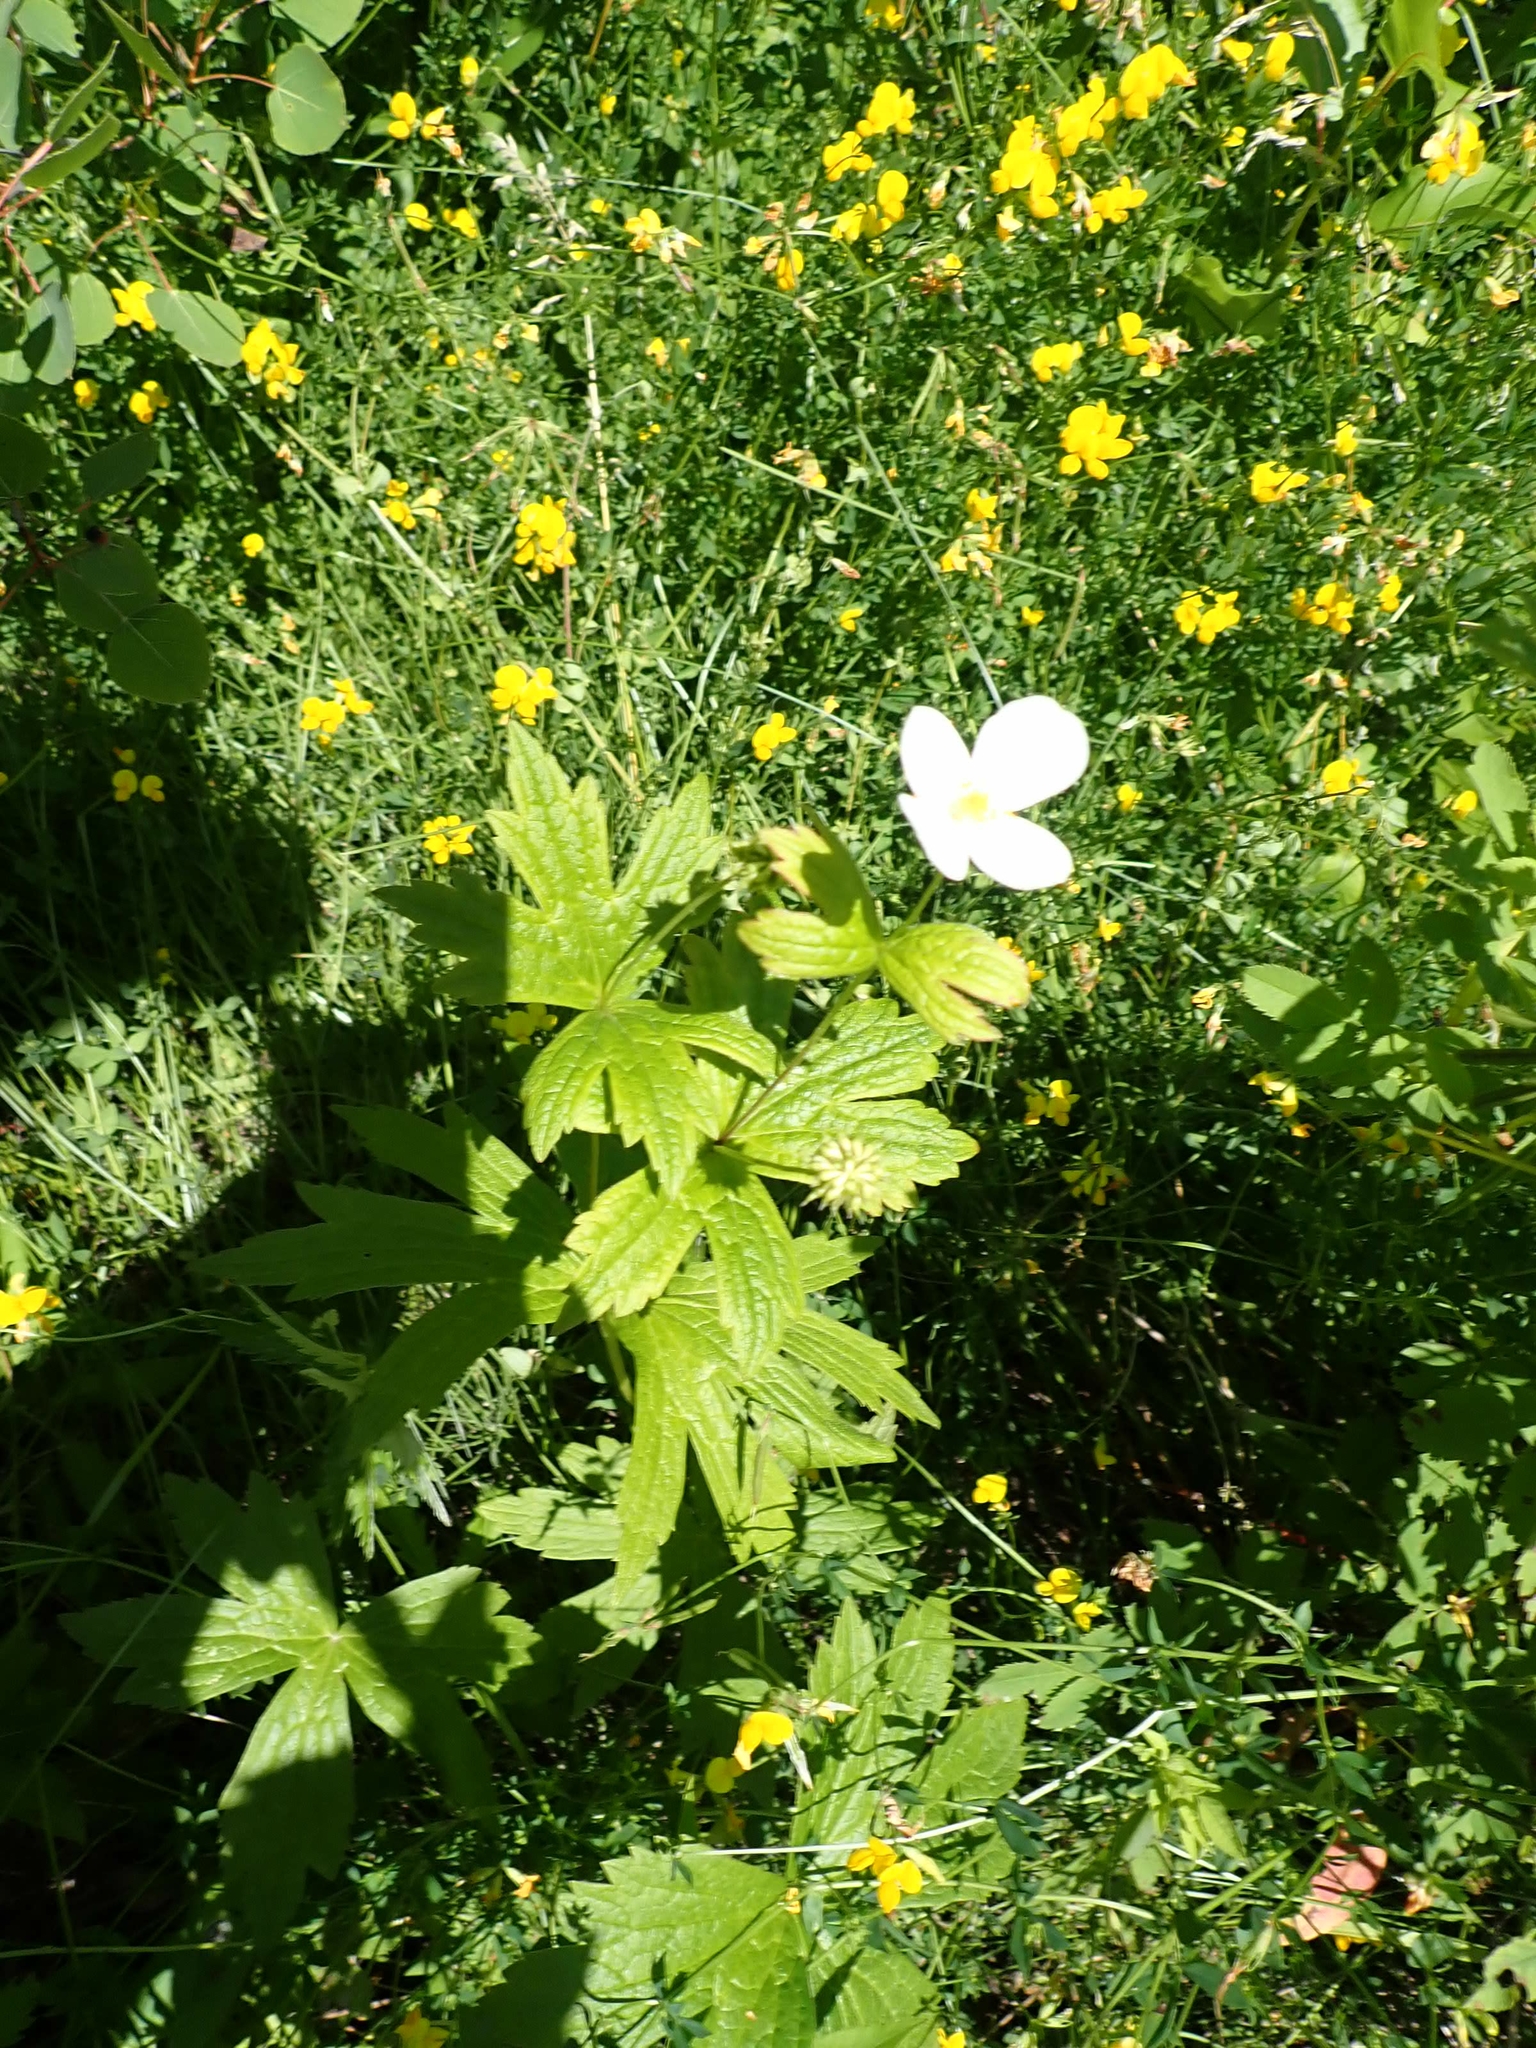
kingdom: Plantae
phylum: Tracheophyta
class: Magnoliopsida
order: Ranunculales
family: Ranunculaceae
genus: Anemonastrum
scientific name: Anemonastrum canadense
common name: Canada anemone
